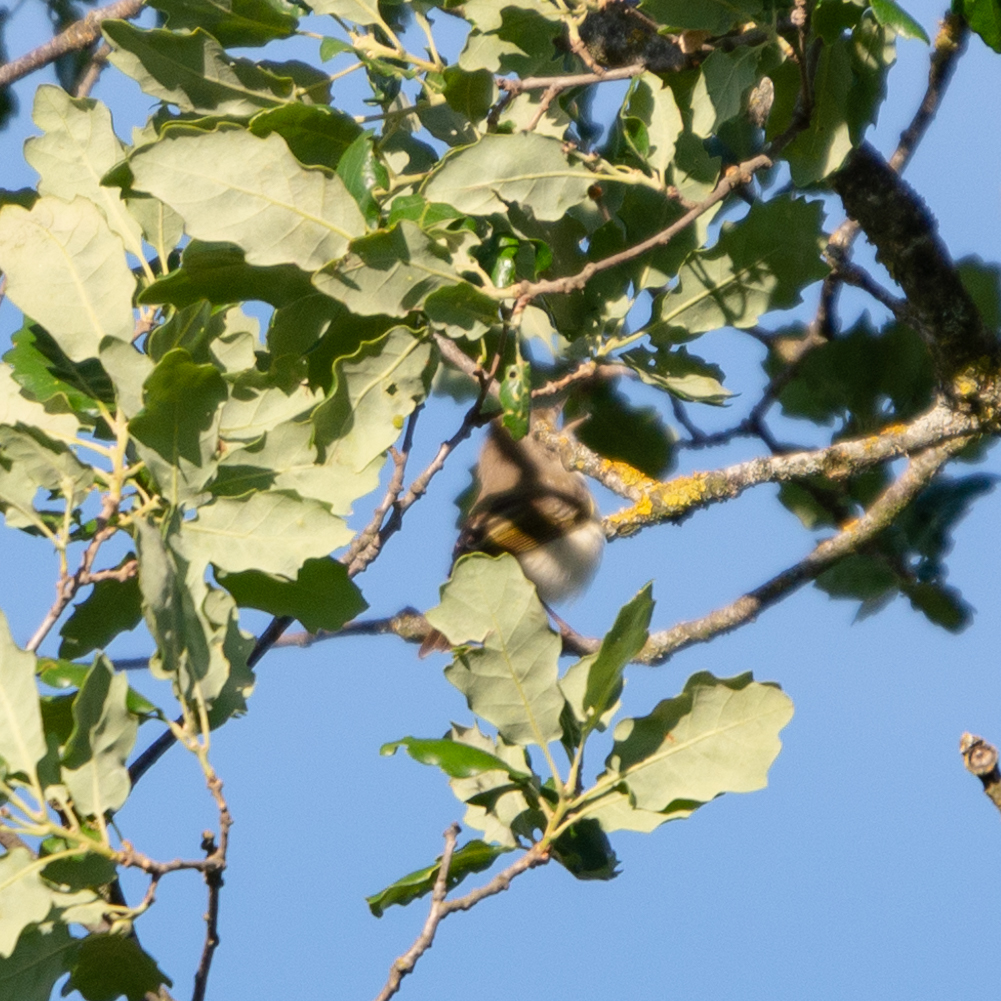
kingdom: Animalia
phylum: Chordata
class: Aves
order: Passeriformes
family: Phylloscopidae
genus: Phylloscopus
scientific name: Phylloscopus bonelli
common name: Western bonelli's warbler
